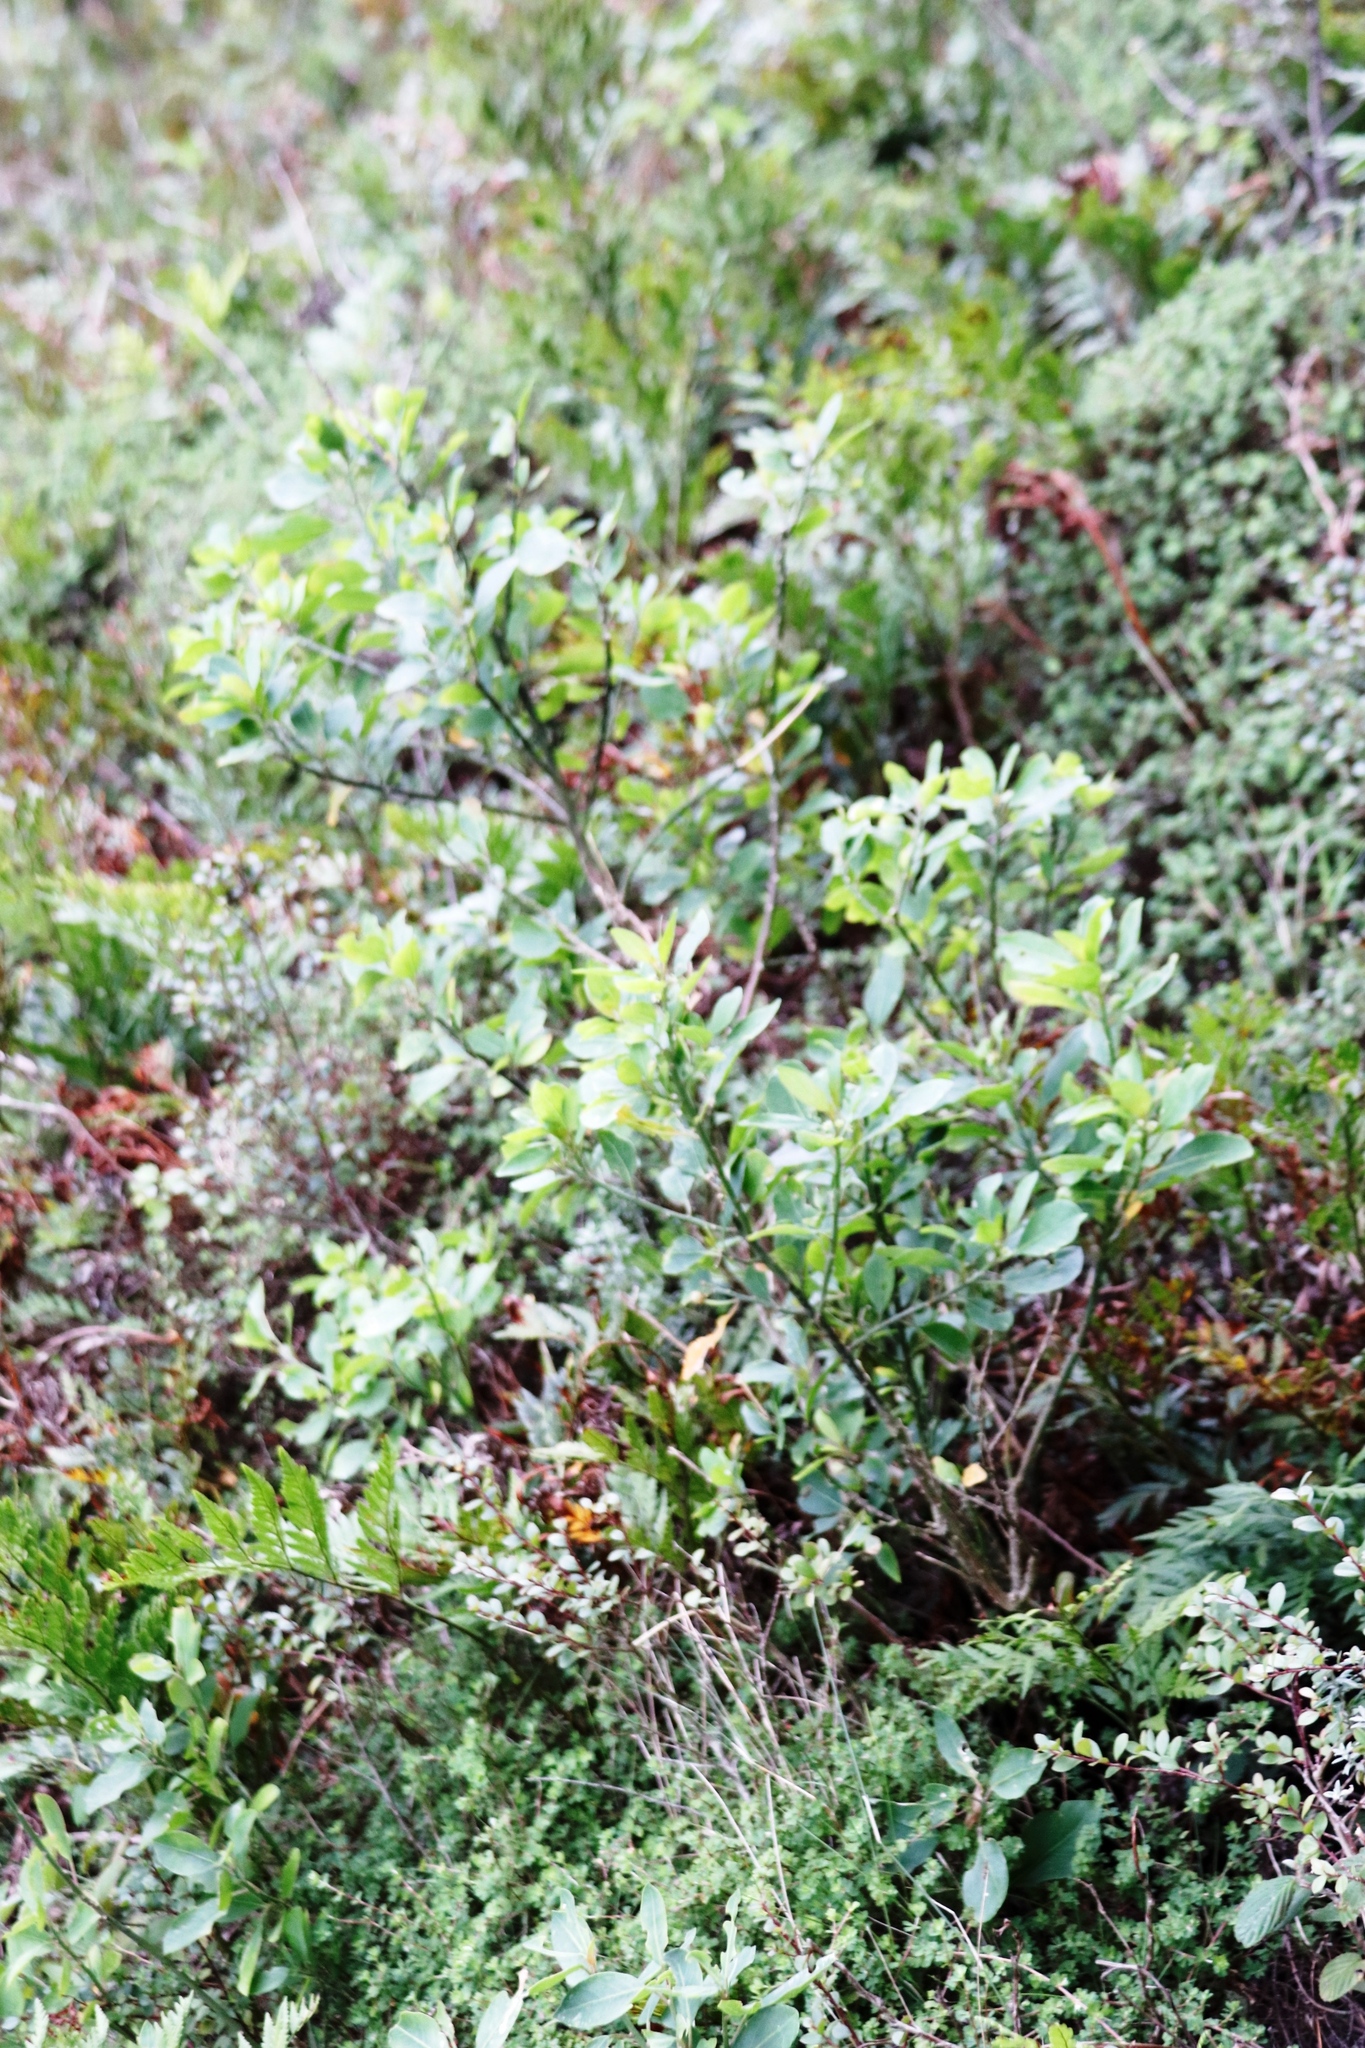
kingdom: Plantae
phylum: Tracheophyta
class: Magnoliopsida
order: Malpighiales
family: Peraceae
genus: Clutia
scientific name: Clutia pulchella
